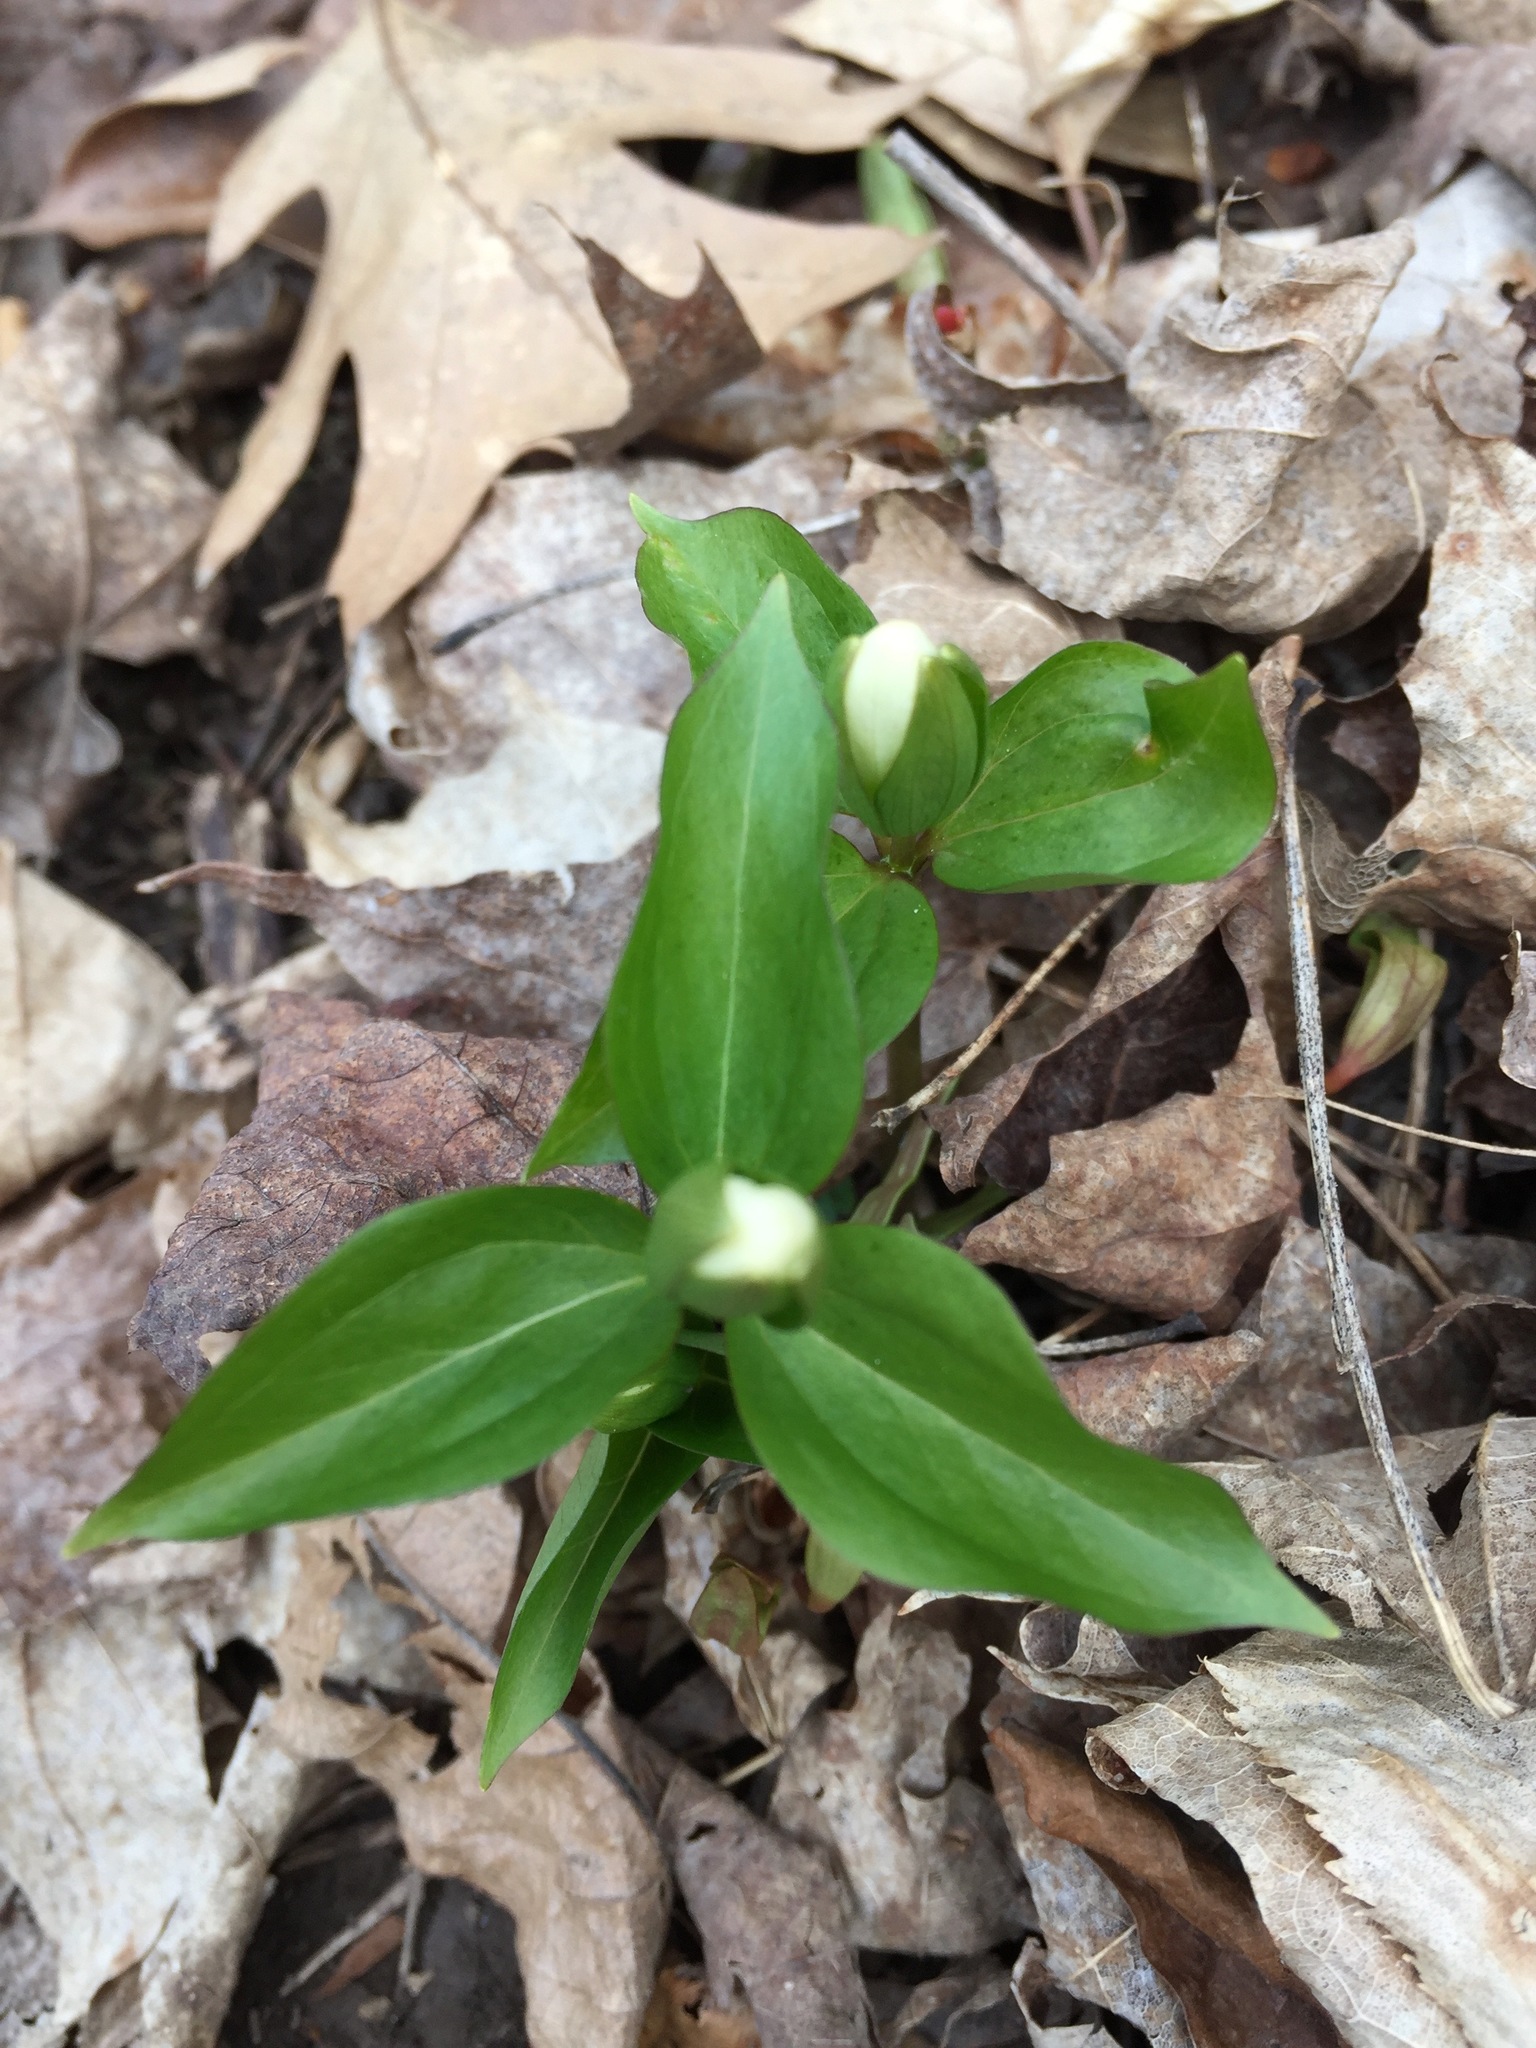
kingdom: Plantae
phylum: Tracheophyta
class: Liliopsida
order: Liliales
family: Melanthiaceae
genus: Trillium
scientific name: Trillium grandiflorum
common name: Great white trillium
